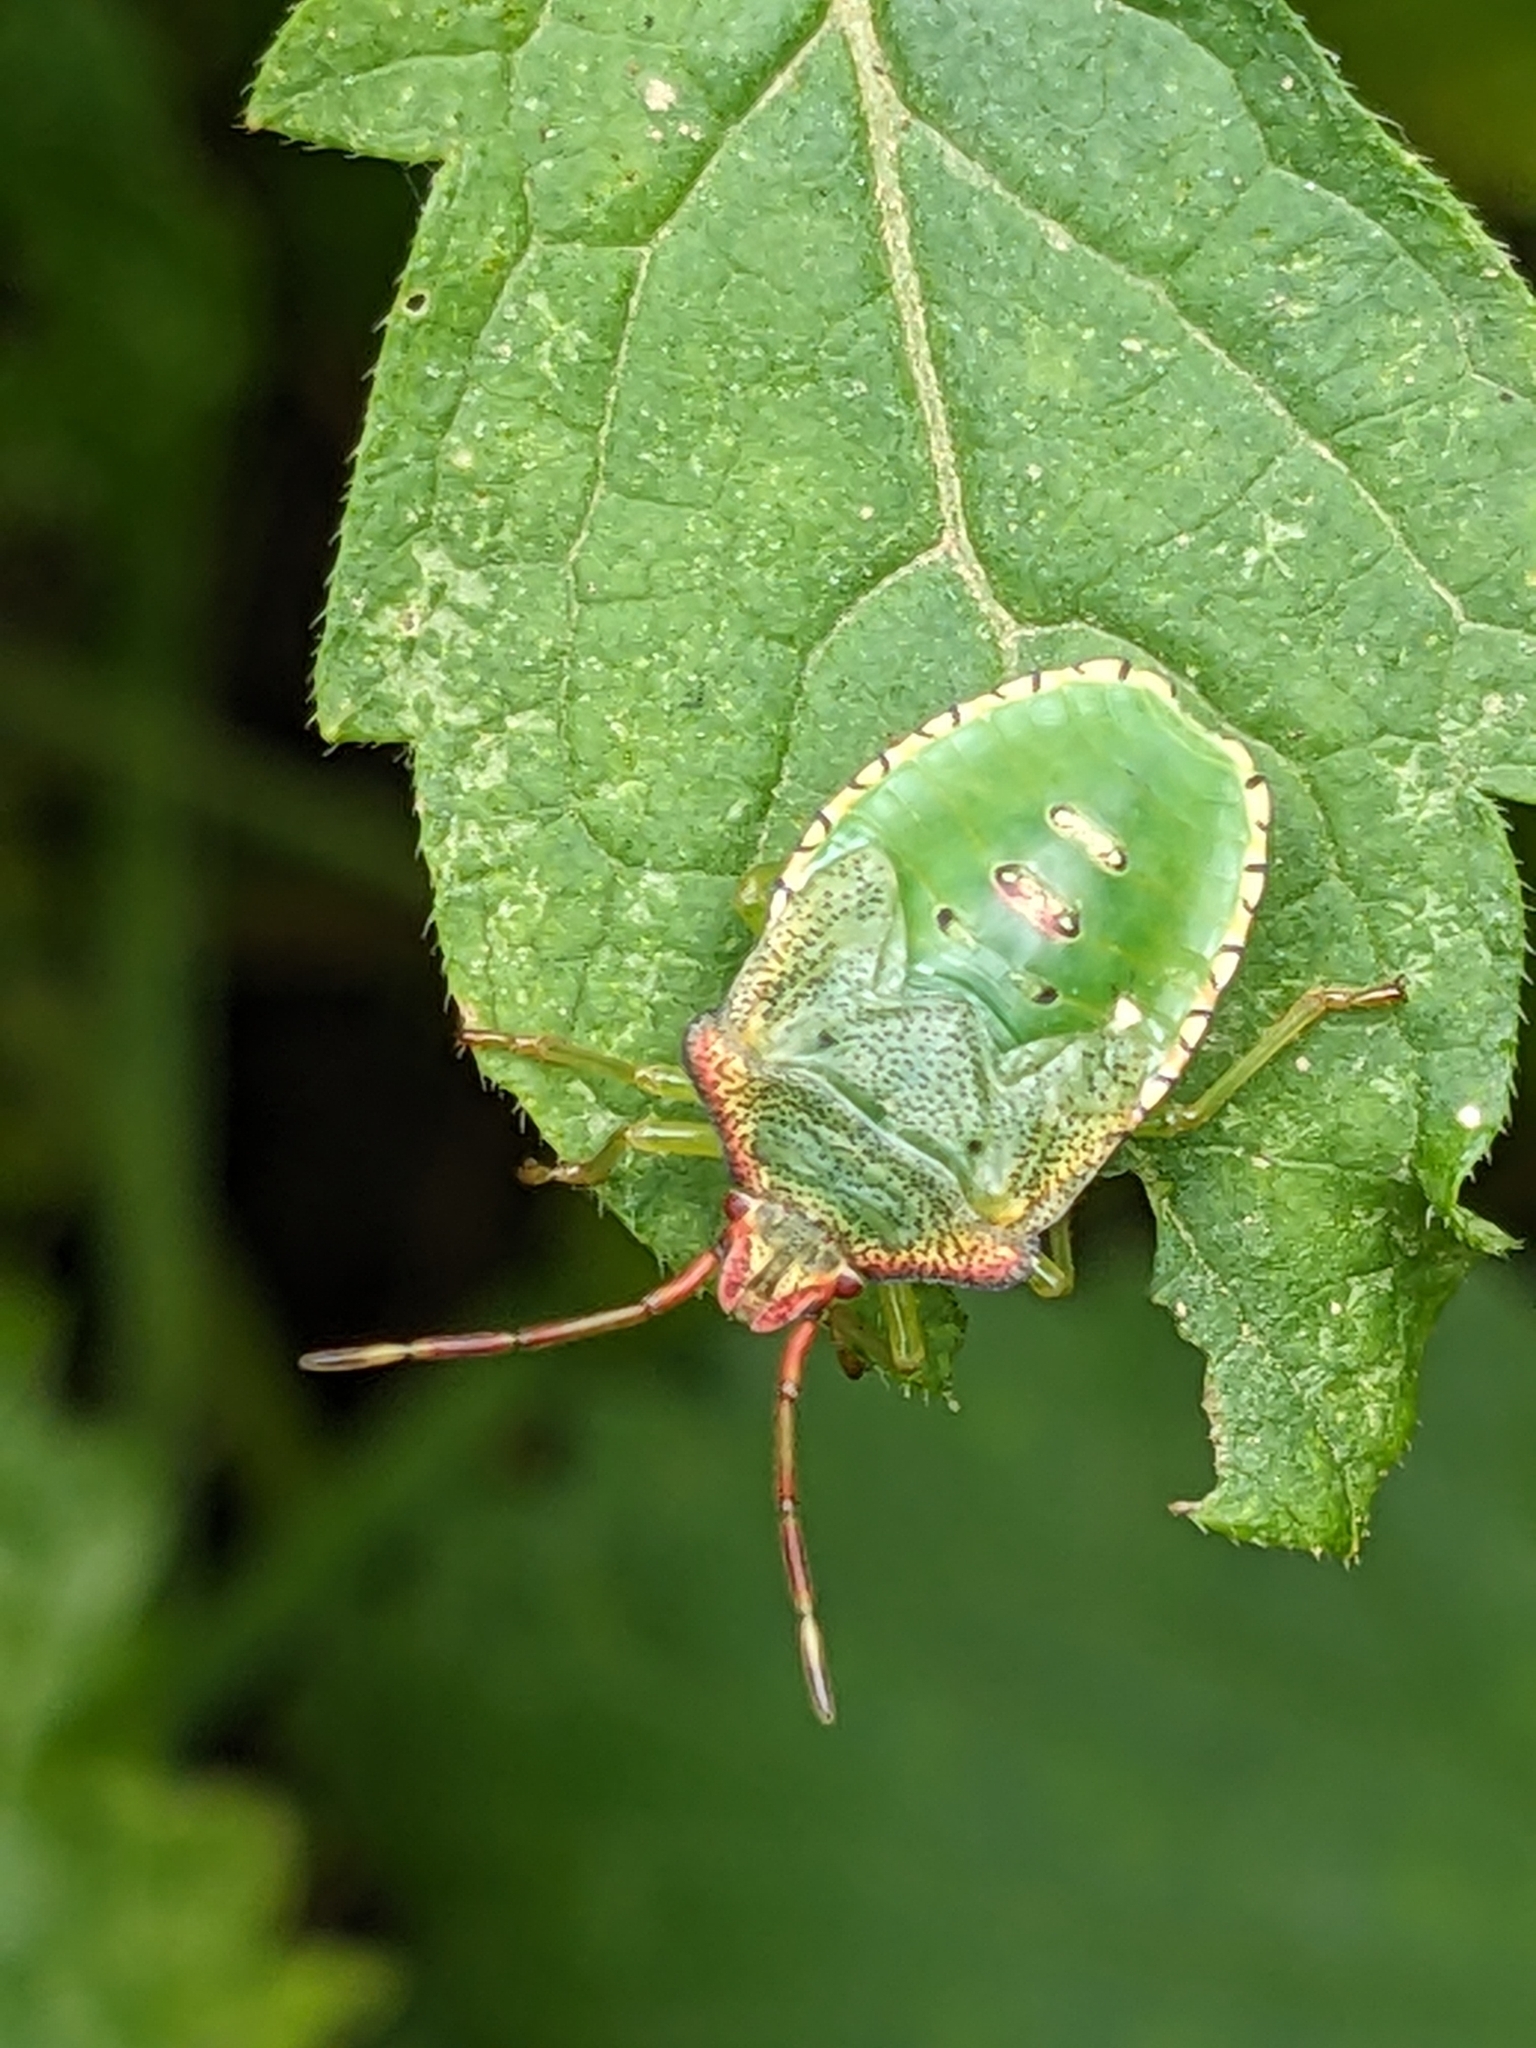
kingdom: Animalia
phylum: Arthropoda
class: Insecta
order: Hemiptera
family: Acanthosomatidae
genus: Acanthosoma
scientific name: Acanthosoma haemorrhoidale
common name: Hawthorn shieldbug
